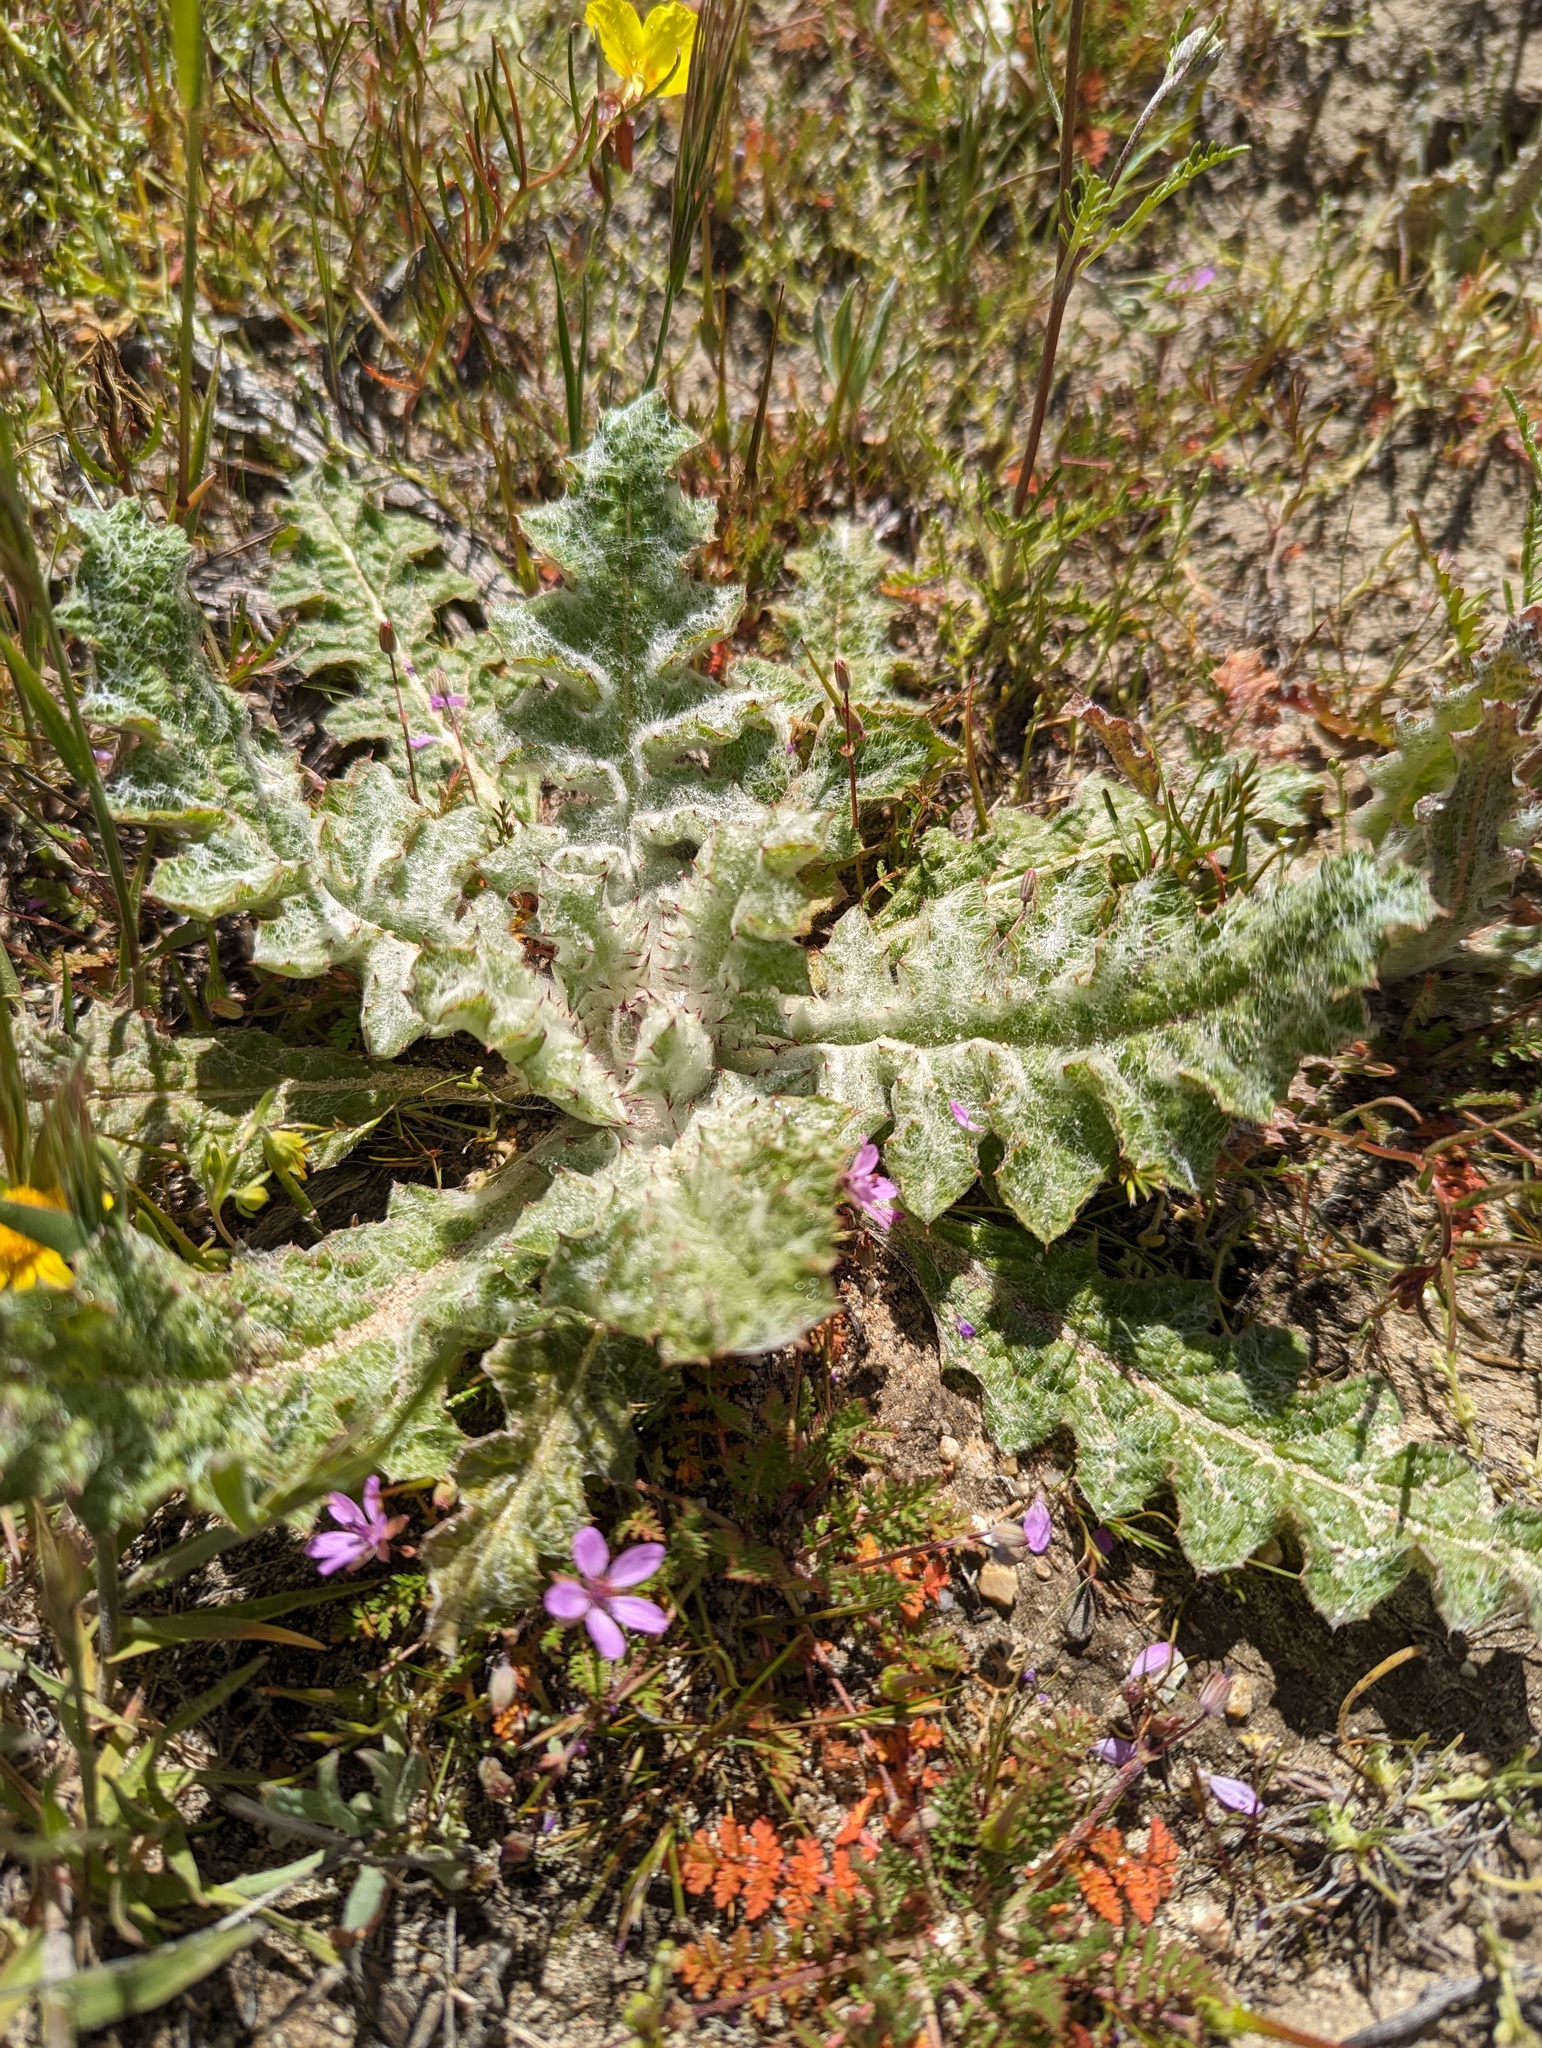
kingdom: Plantae
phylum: Tracheophyta
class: Magnoliopsida
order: Lamiales
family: Lamiaceae
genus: Salvia
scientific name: Salvia carduacea
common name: Thistle sage
